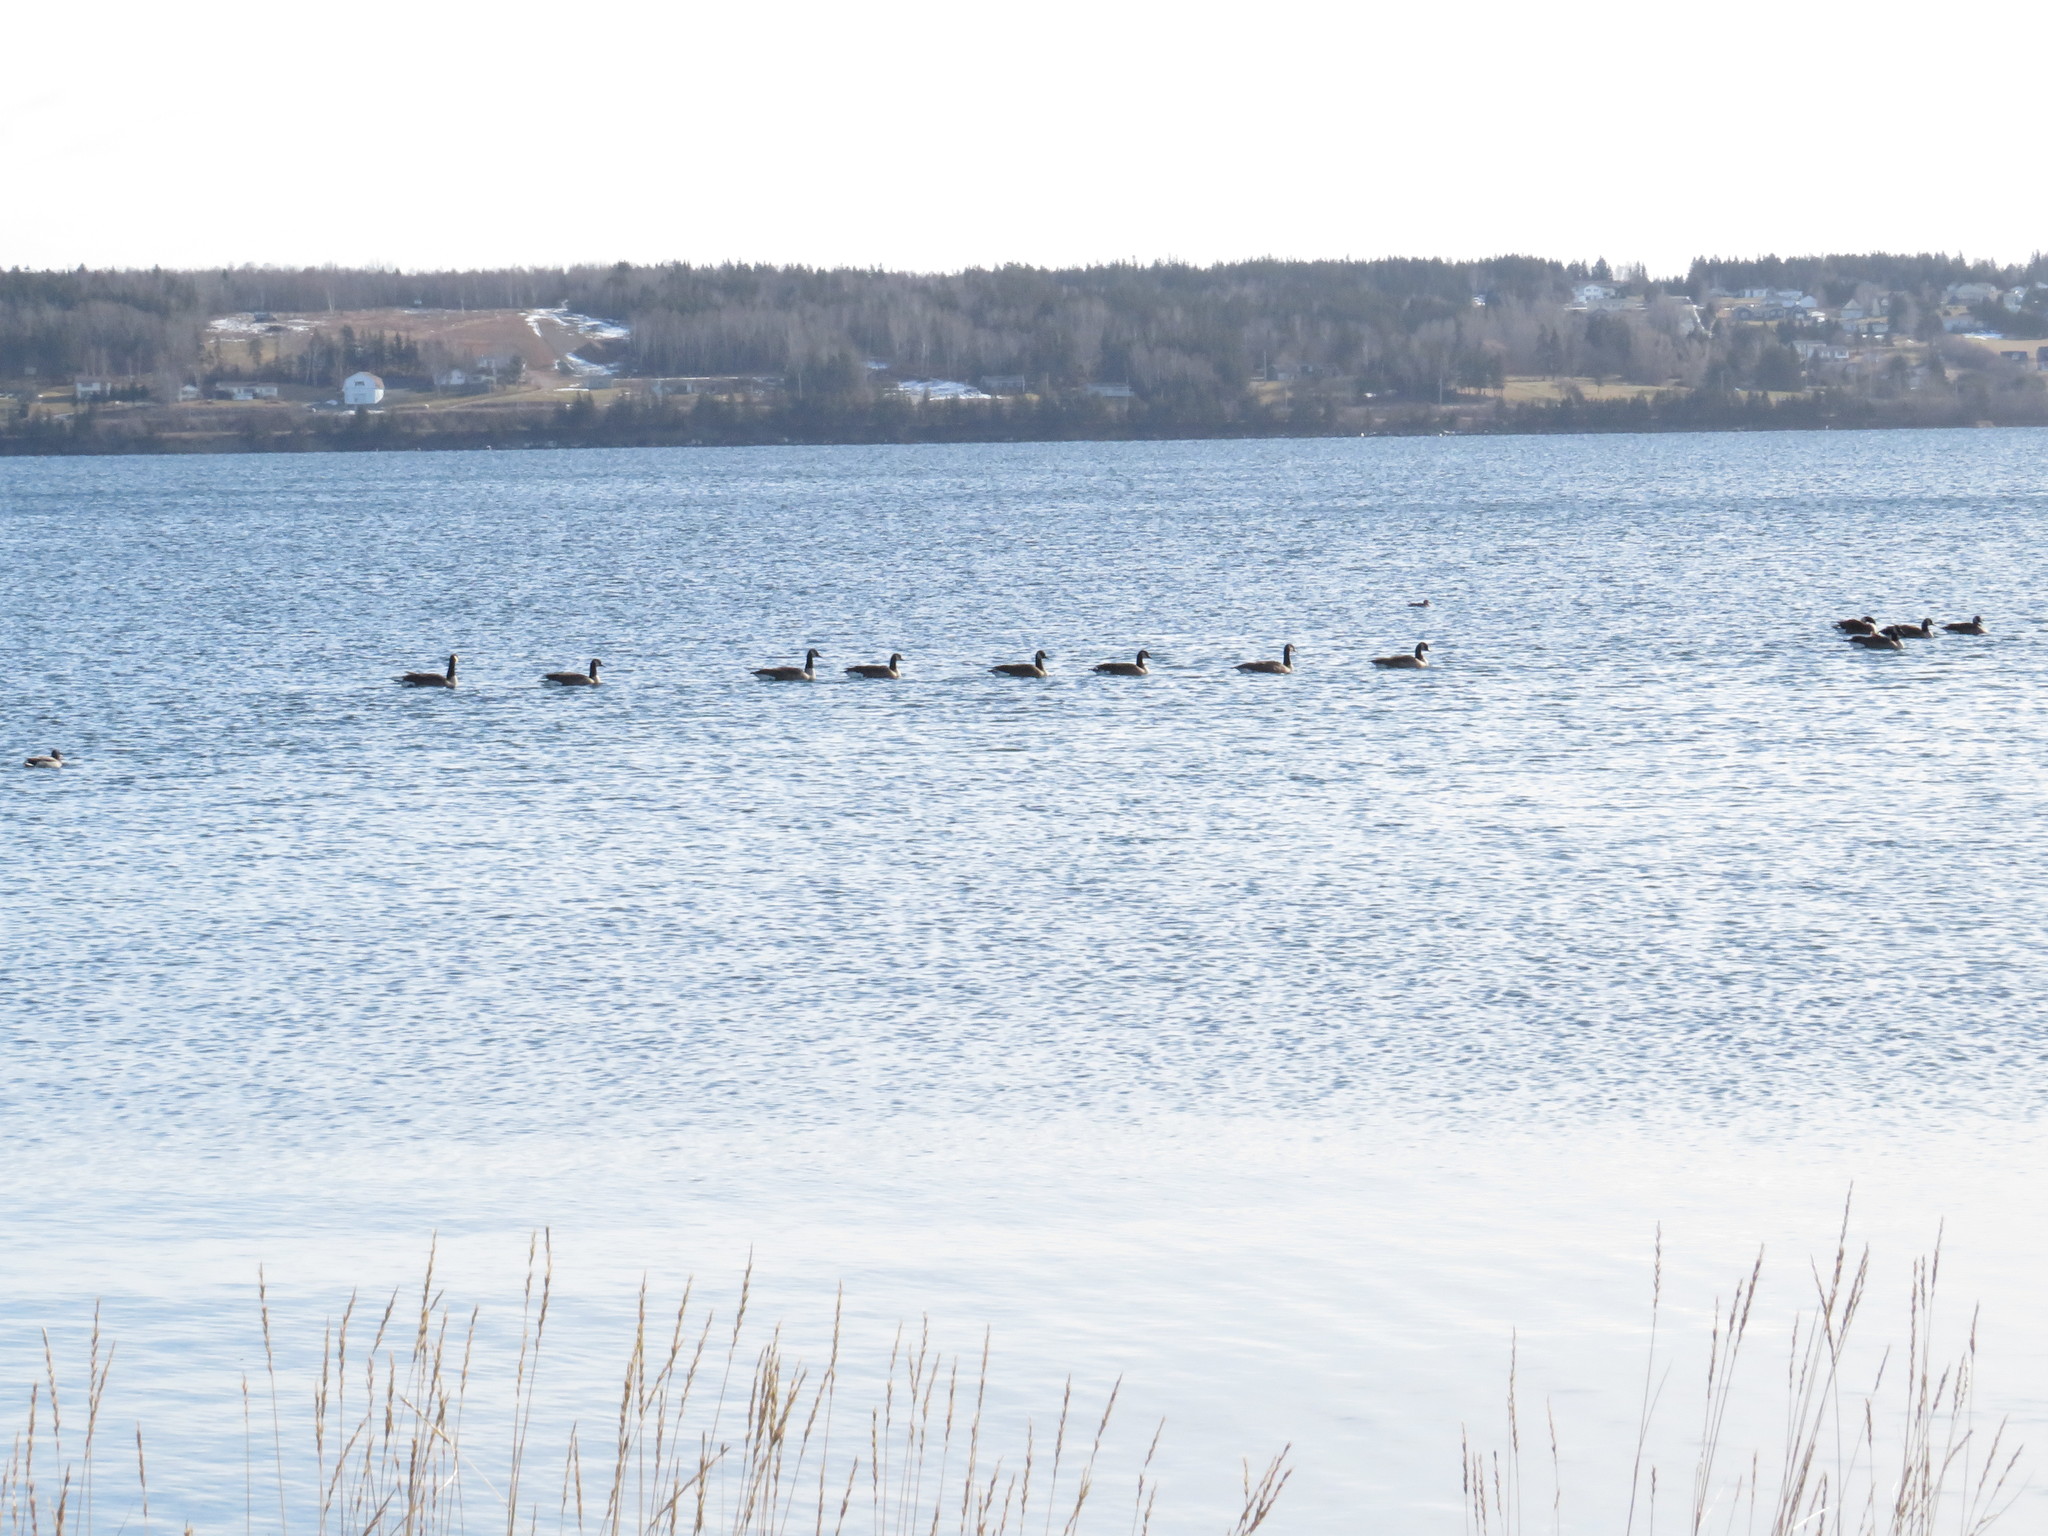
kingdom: Animalia
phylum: Chordata
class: Aves
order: Anseriformes
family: Anatidae
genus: Branta
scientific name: Branta canadensis
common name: Canada goose
